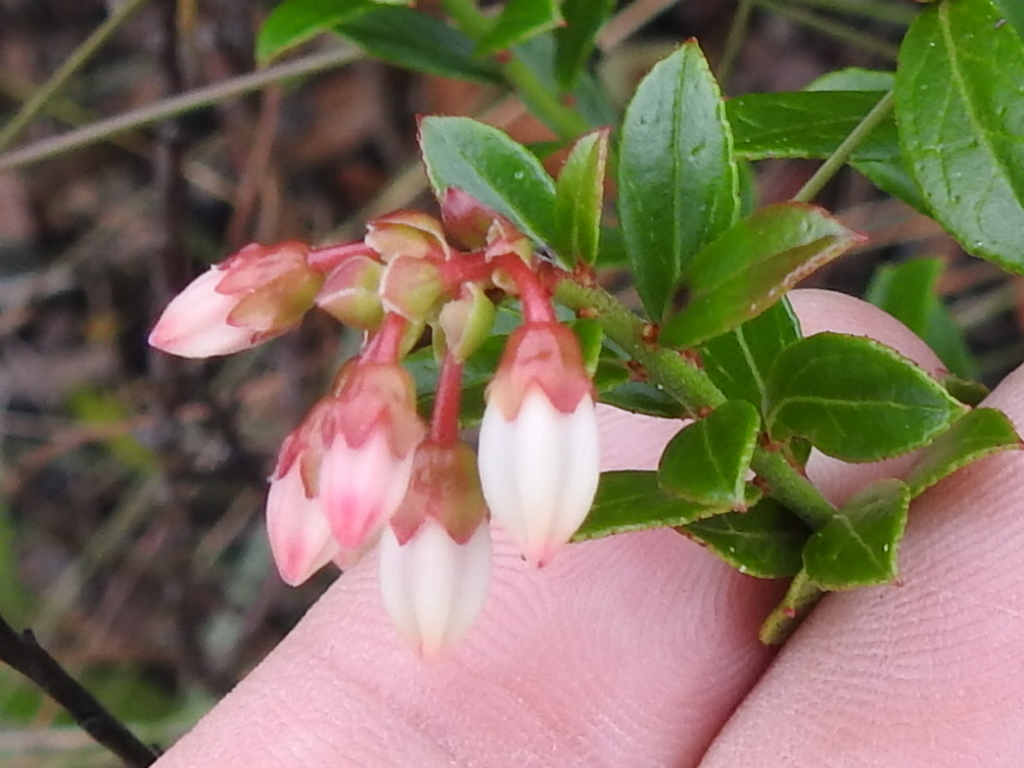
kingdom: Plantae
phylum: Tracheophyta
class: Magnoliopsida
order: Ericales
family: Ericaceae
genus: Vaccinium
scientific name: Vaccinium myrsinites
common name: Evergreen blueberry
